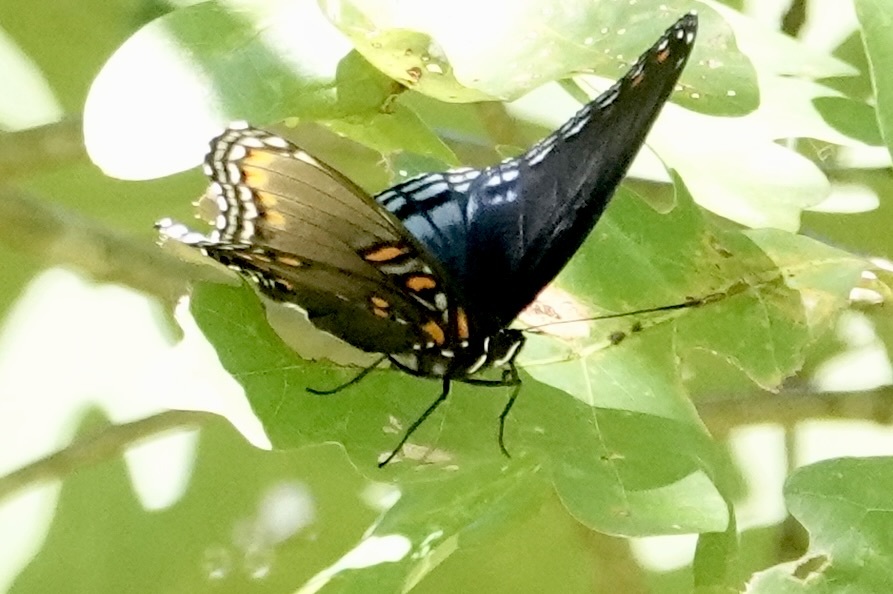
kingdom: Animalia
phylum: Arthropoda
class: Insecta
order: Lepidoptera
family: Nymphalidae
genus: Limenitis
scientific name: Limenitis astyanax
